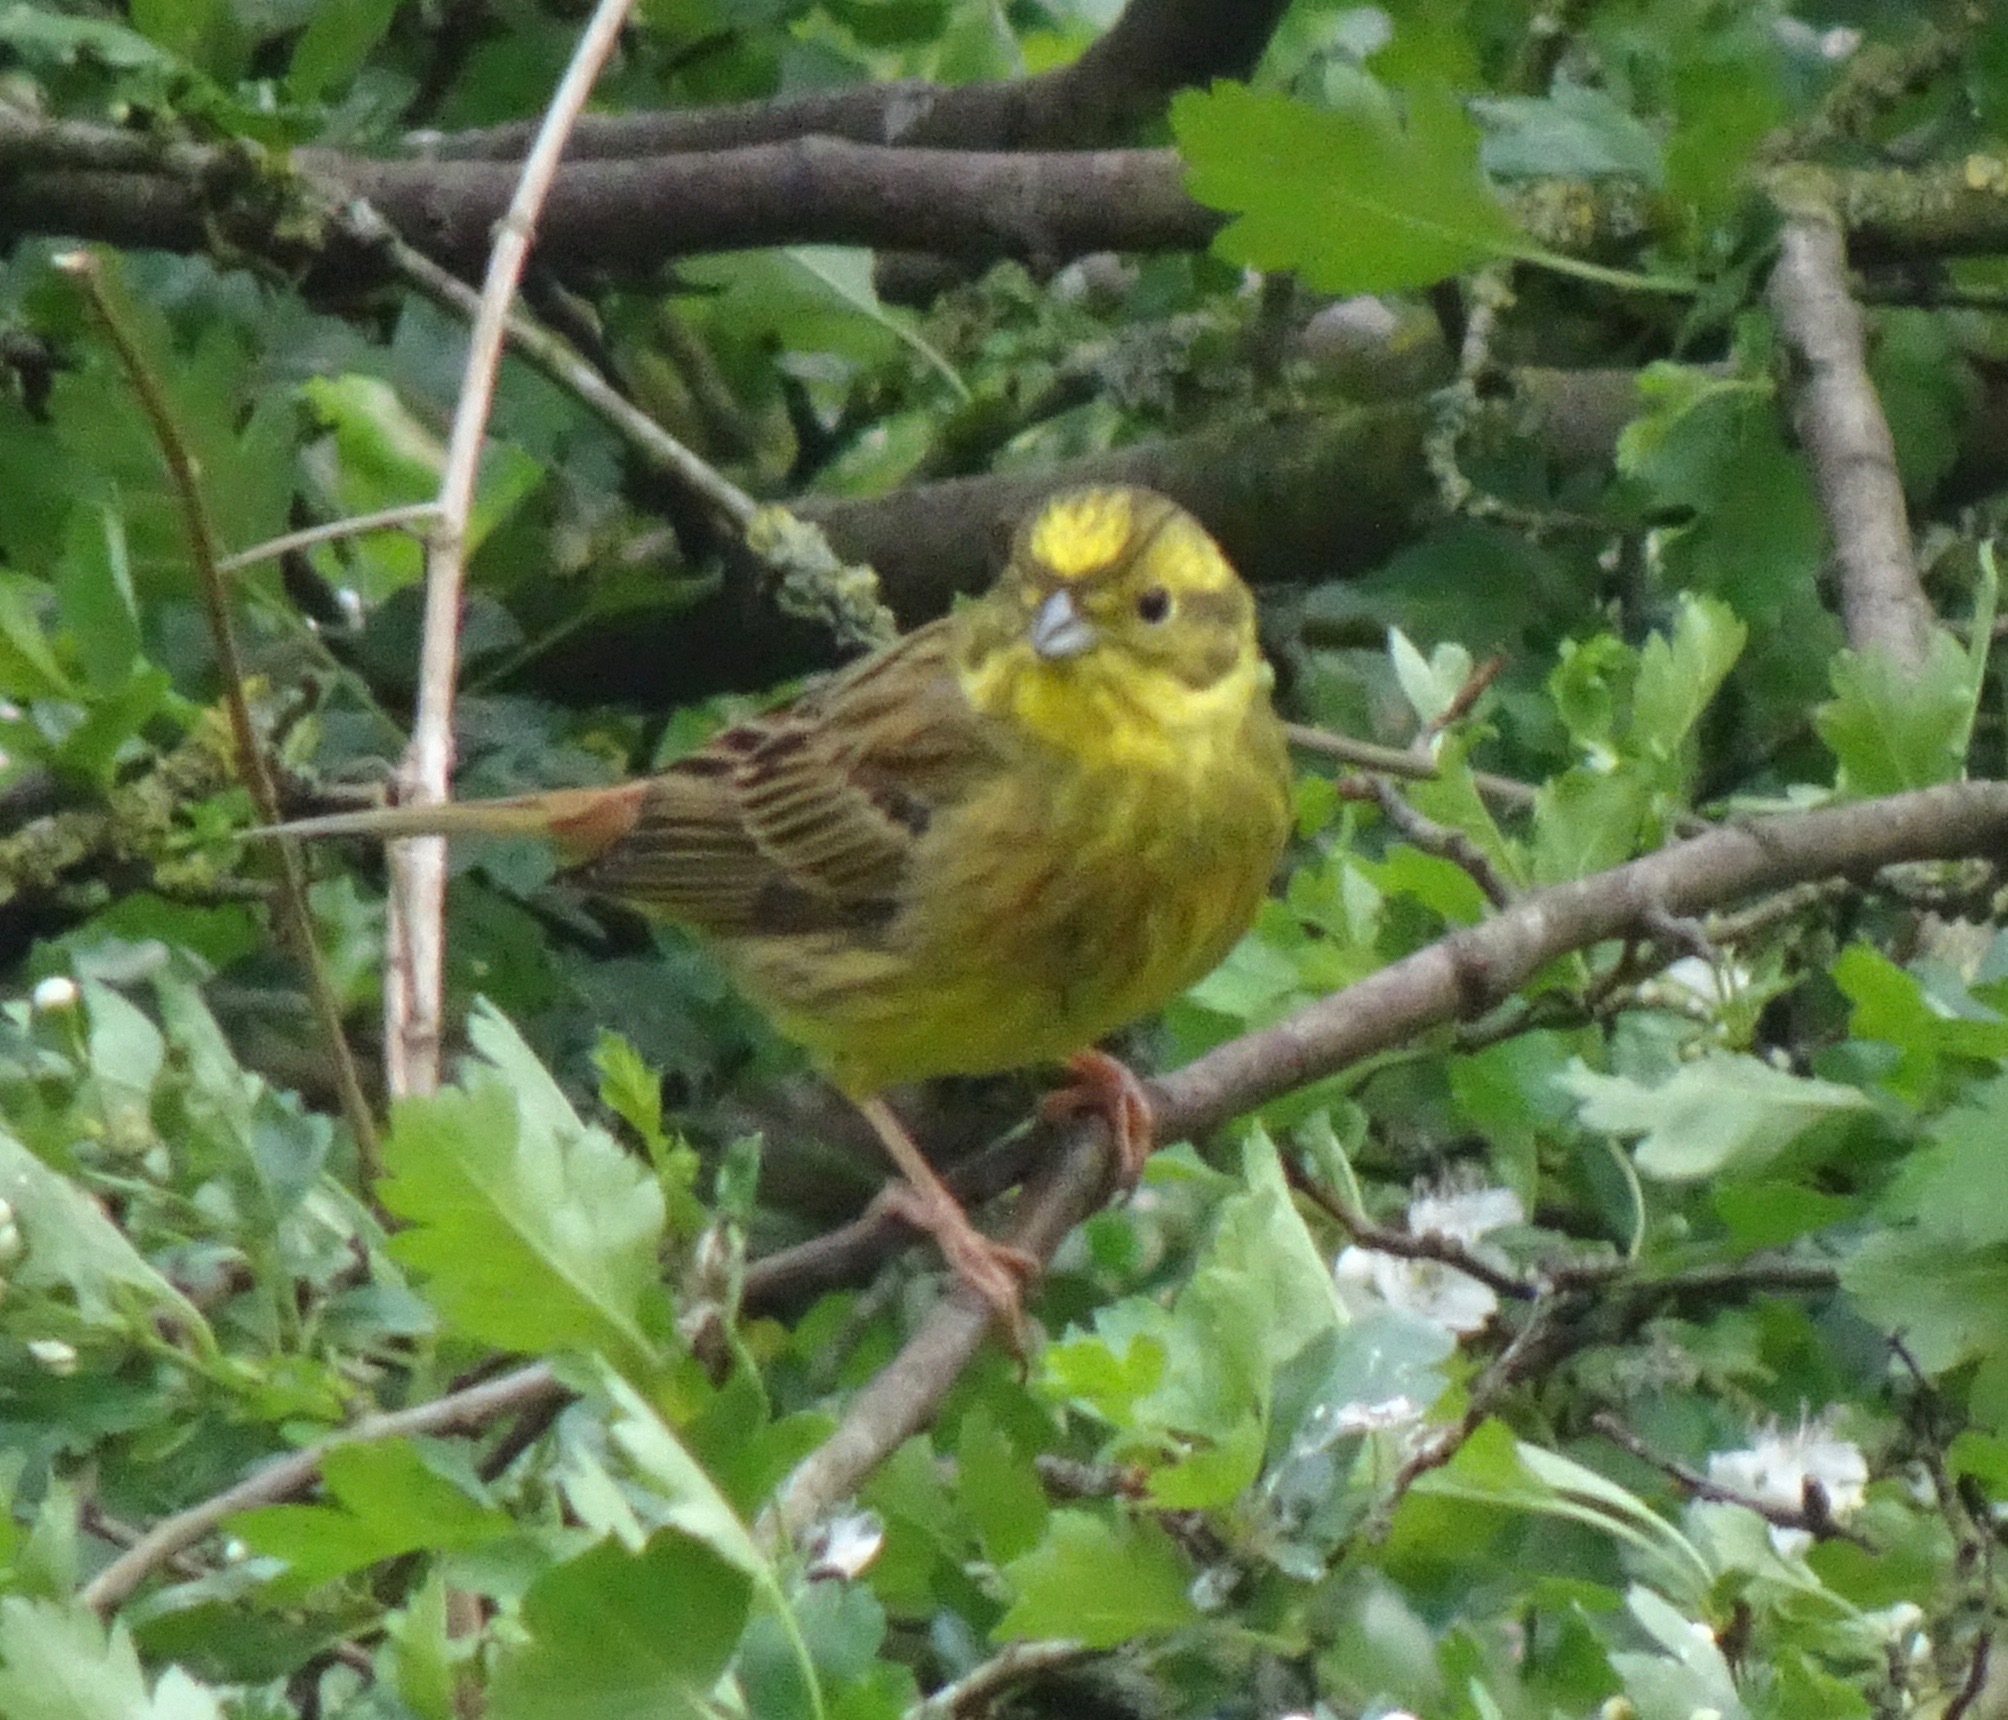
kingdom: Animalia
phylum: Chordata
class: Aves
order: Passeriformes
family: Emberizidae
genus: Emberiza
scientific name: Emberiza citrinella
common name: Yellowhammer
